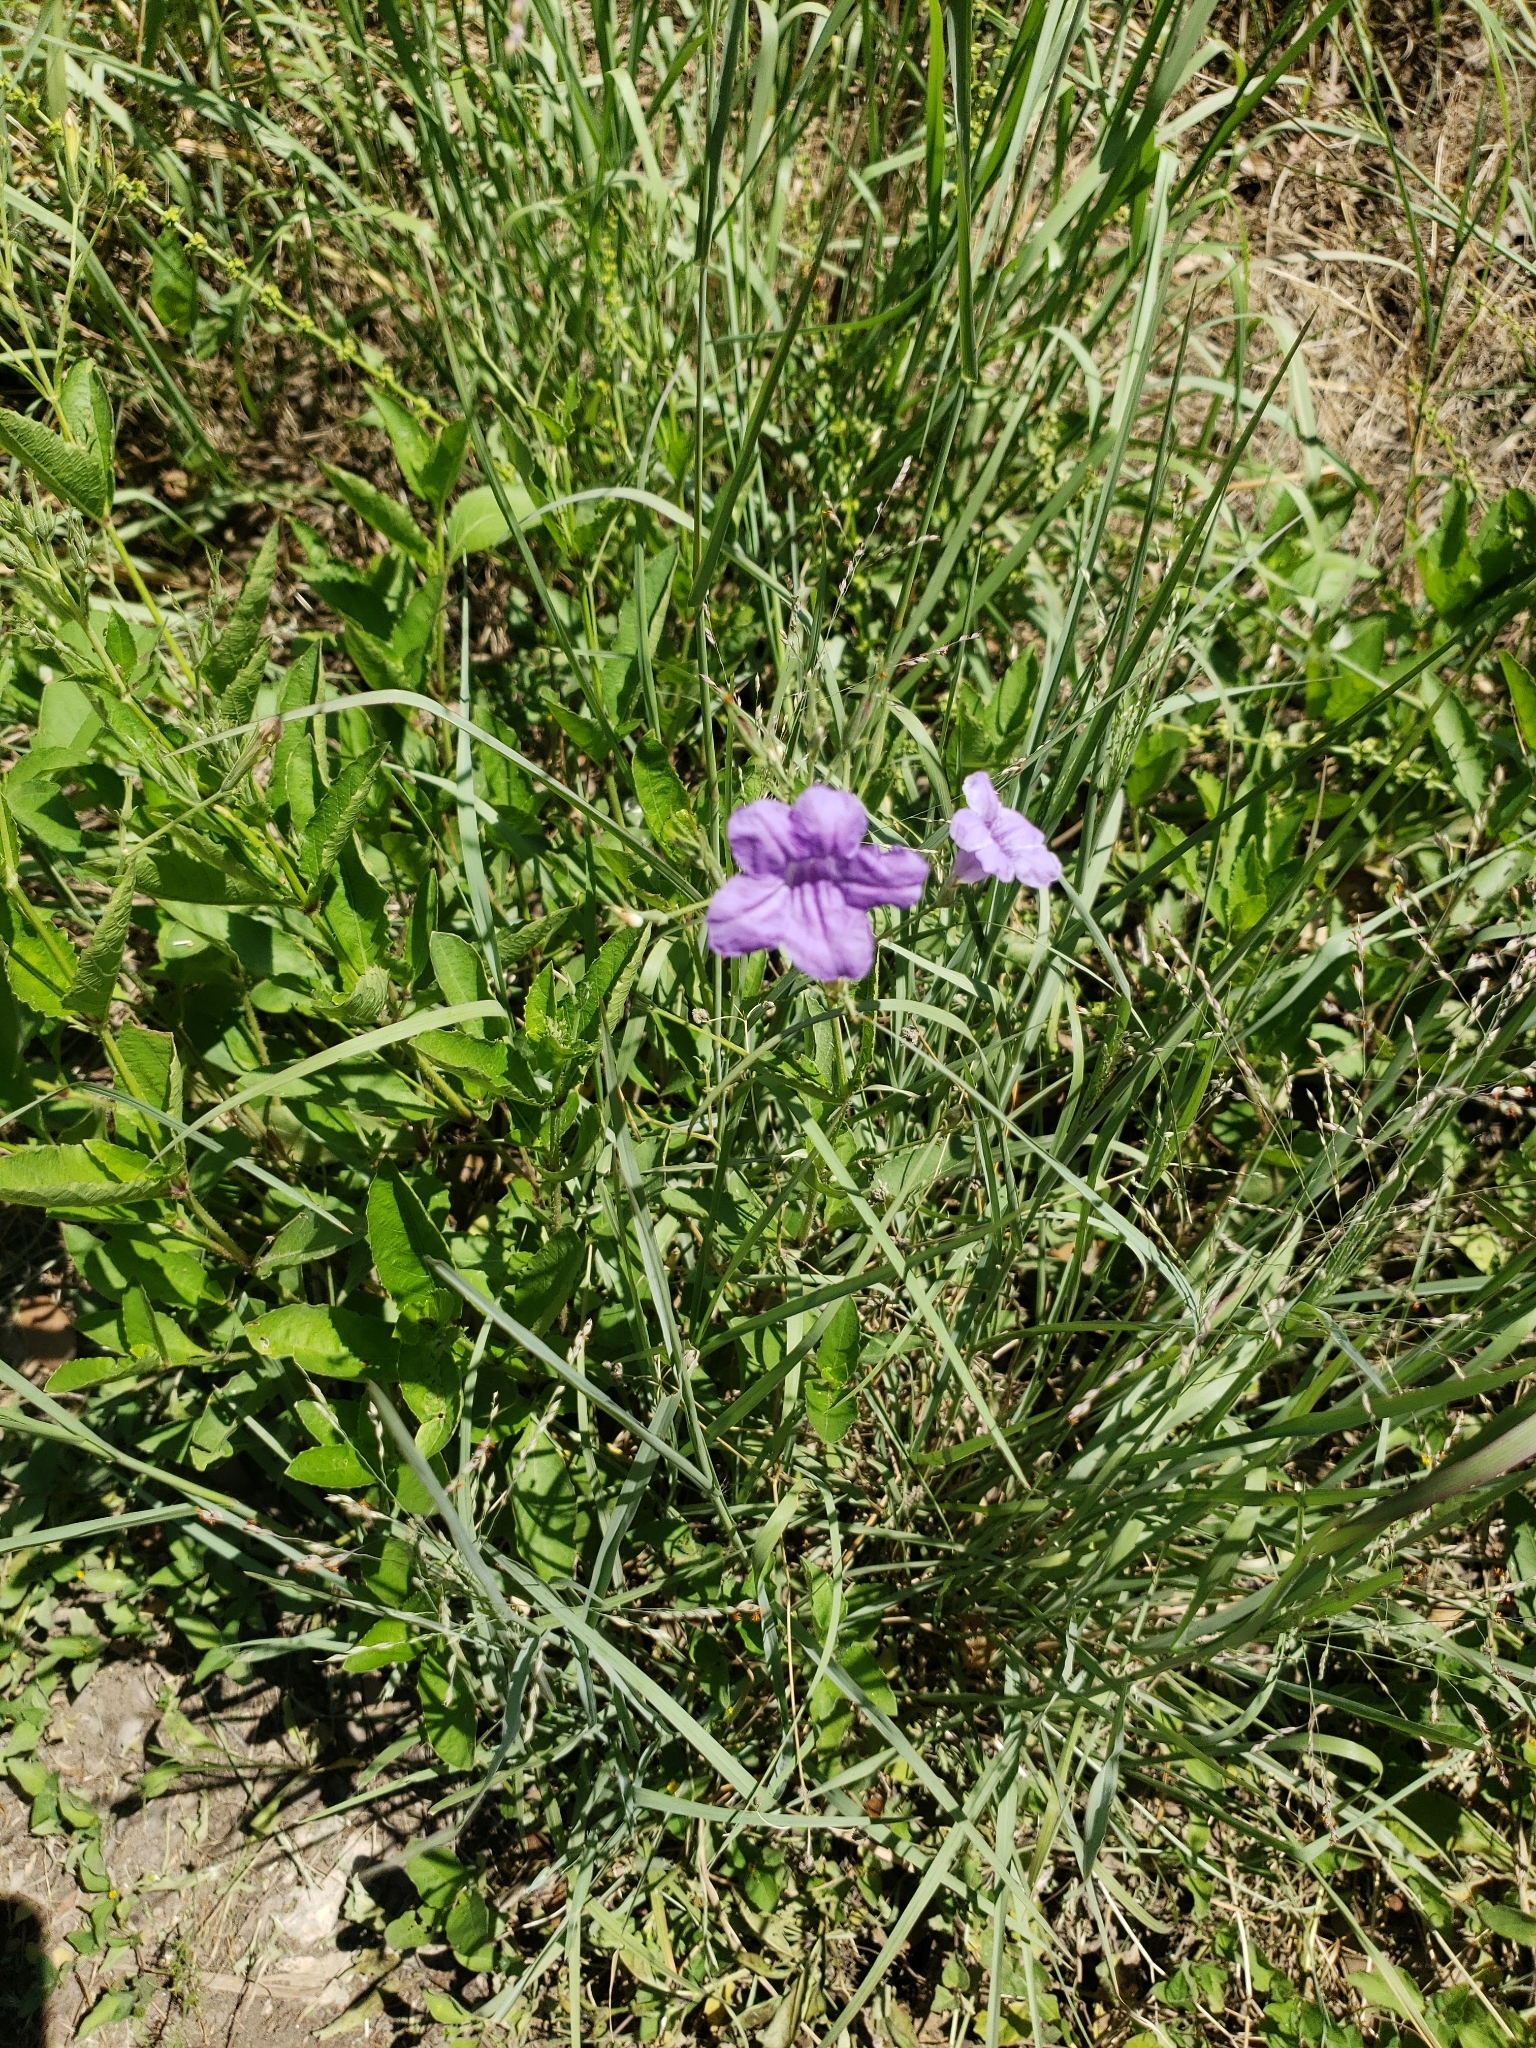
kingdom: Plantae
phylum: Tracheophyta
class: Magnoliopsida
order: Lamiales
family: Acanthaceae
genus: Ruellia
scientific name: Ruellia ciliatiflora
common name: Hairyflower wild petunia
